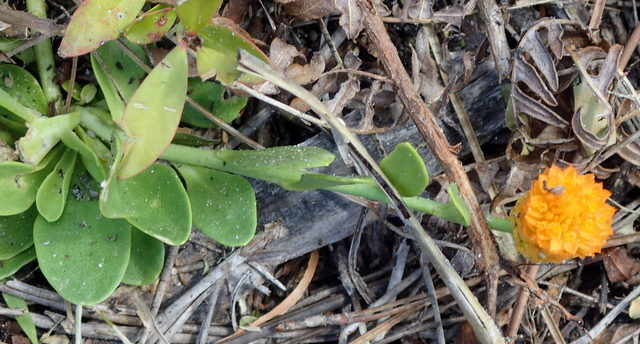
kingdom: Plantae
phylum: Tracheophyta
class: Magnoliopsida
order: Fabales
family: Polygalaceae
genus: Polygala
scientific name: Polygala lutea
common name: Orange milkwort
